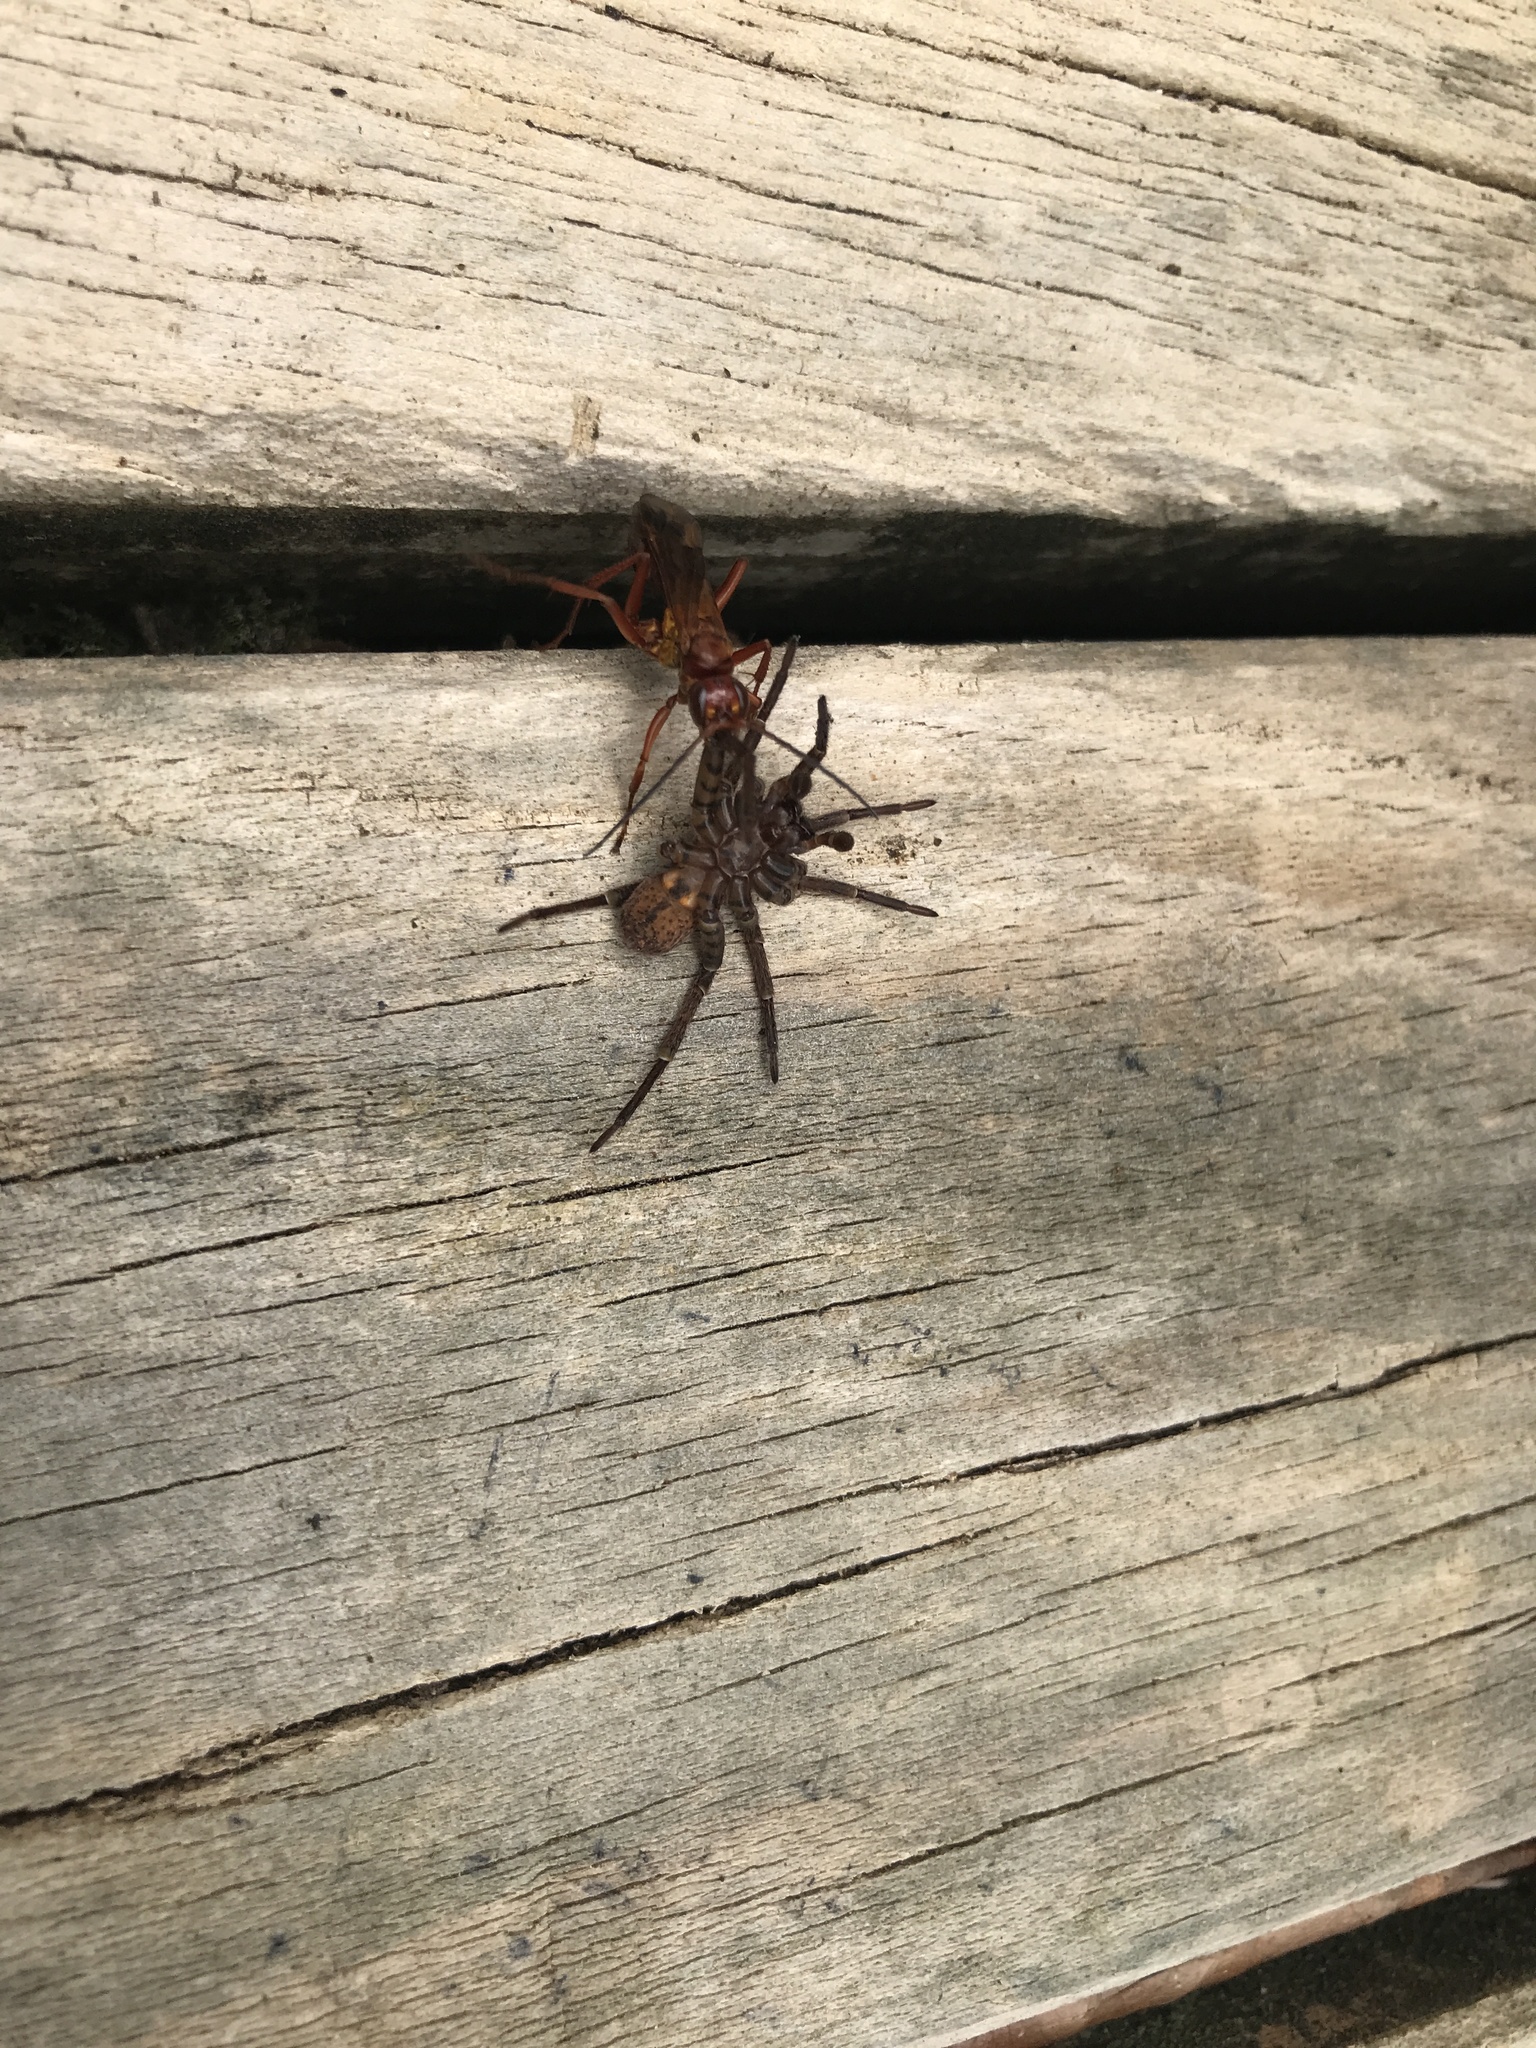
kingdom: Animalia
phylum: Arthropoda
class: Insecta
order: Hymenoptera
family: Pompilidae
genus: Sphictostethus
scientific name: Sphictostethus nitidus
